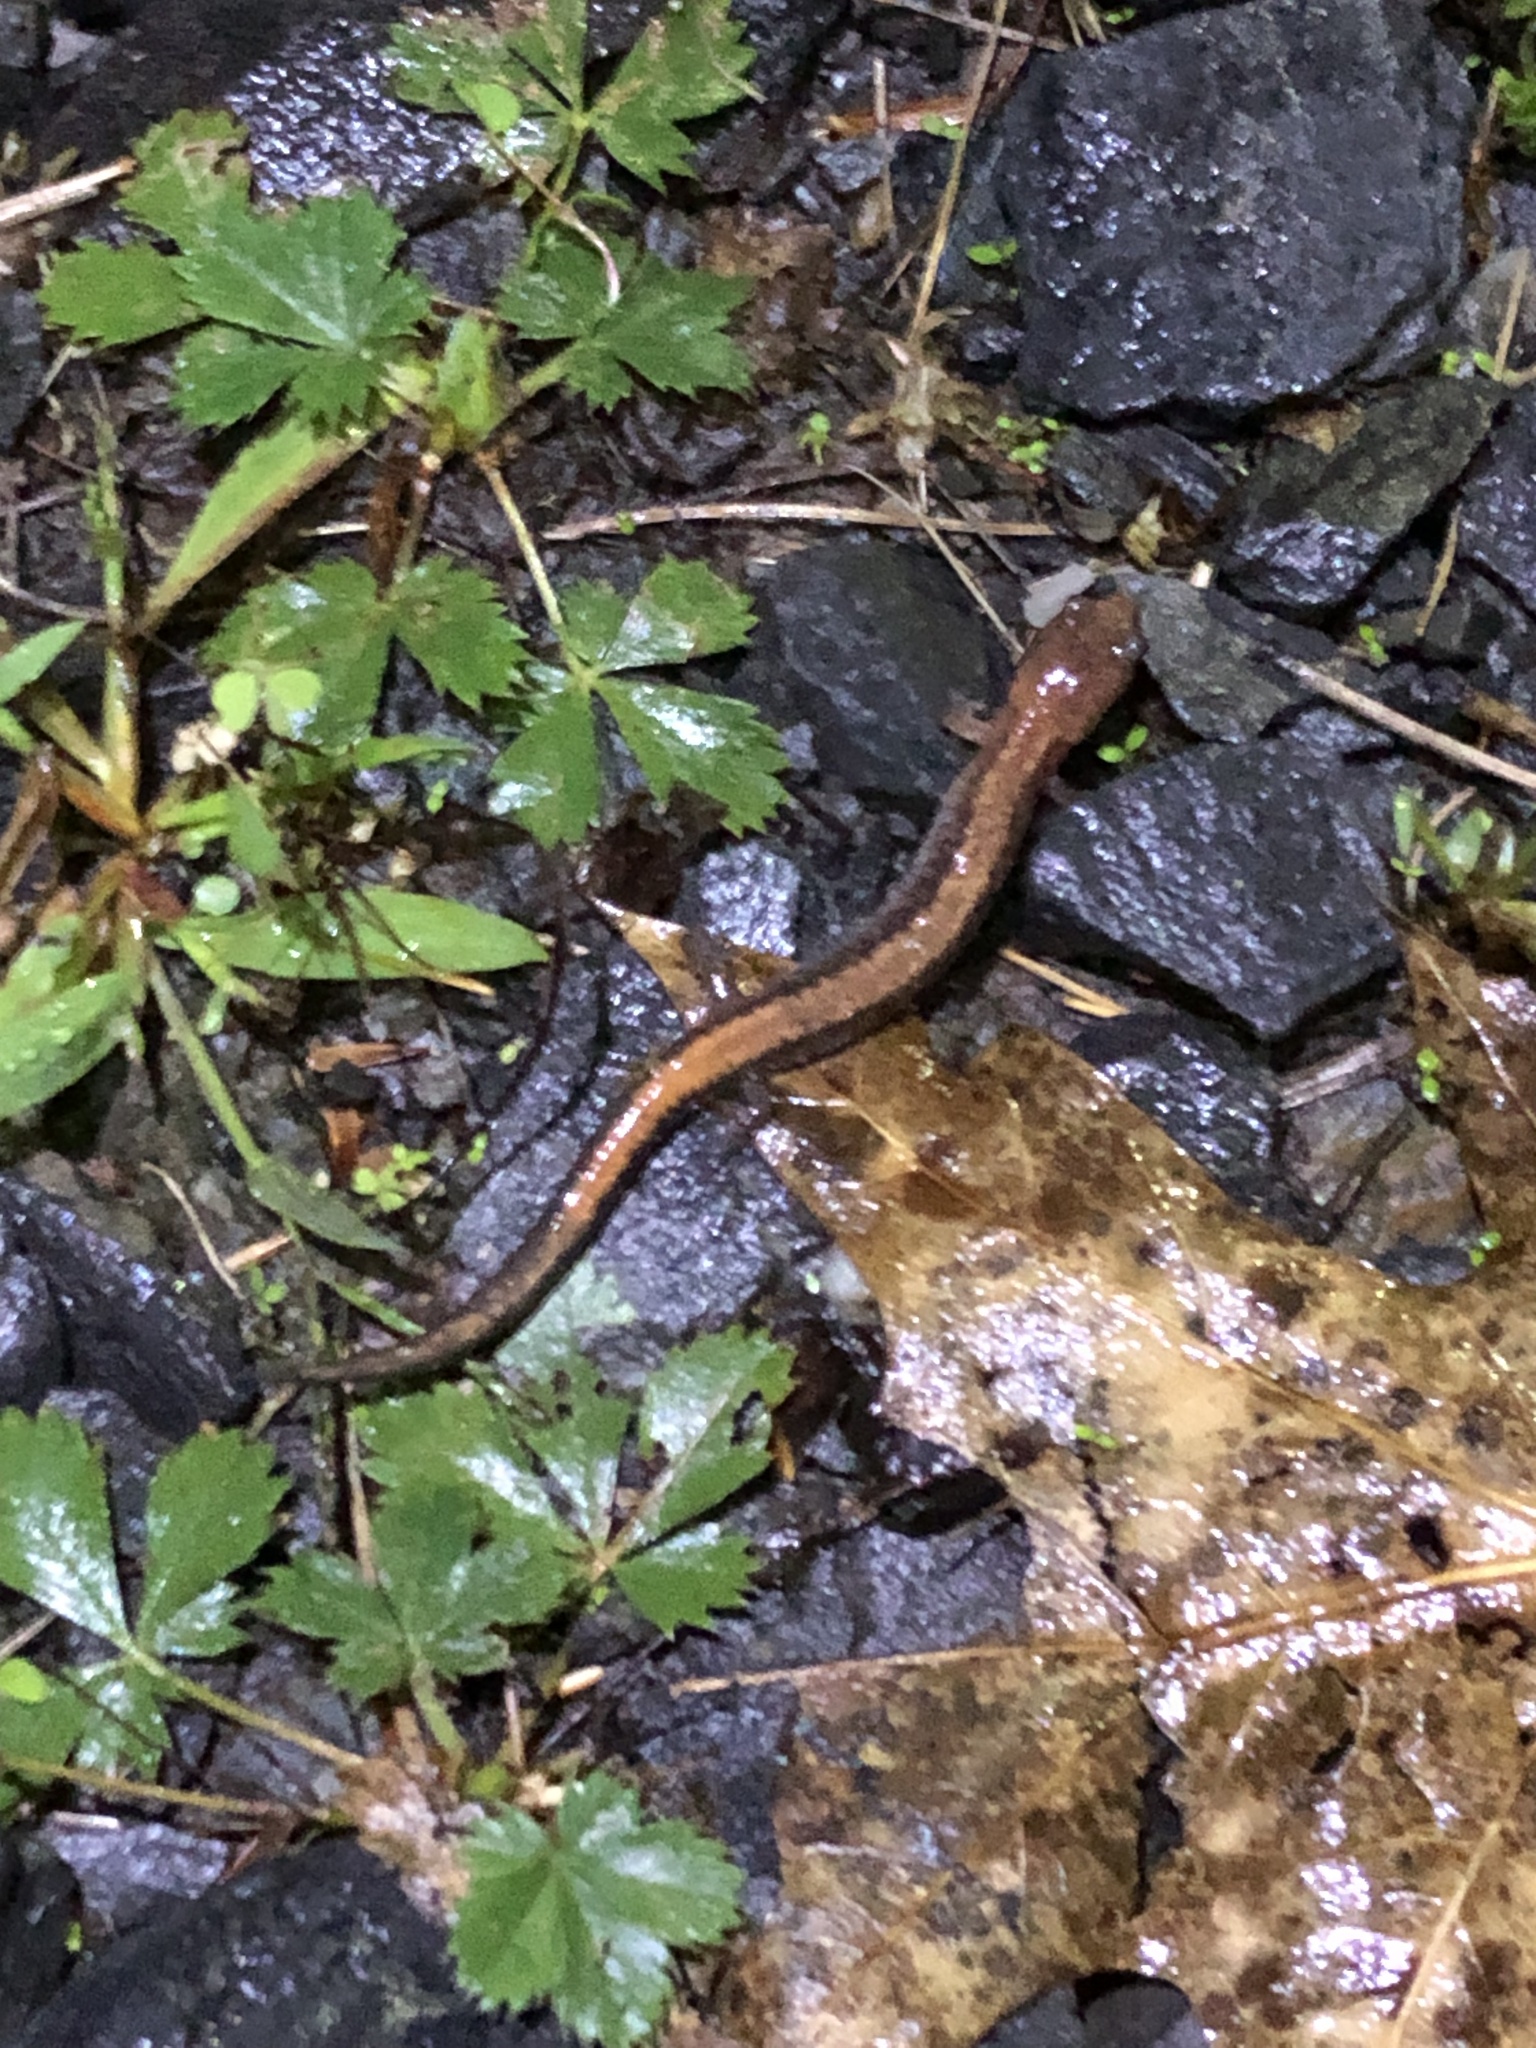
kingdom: Animalia
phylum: Chordata
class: Amphibia
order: Caudata
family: Plethodontidae
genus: Plethodon
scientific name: Plethodon cinereus
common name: Redback salamander
